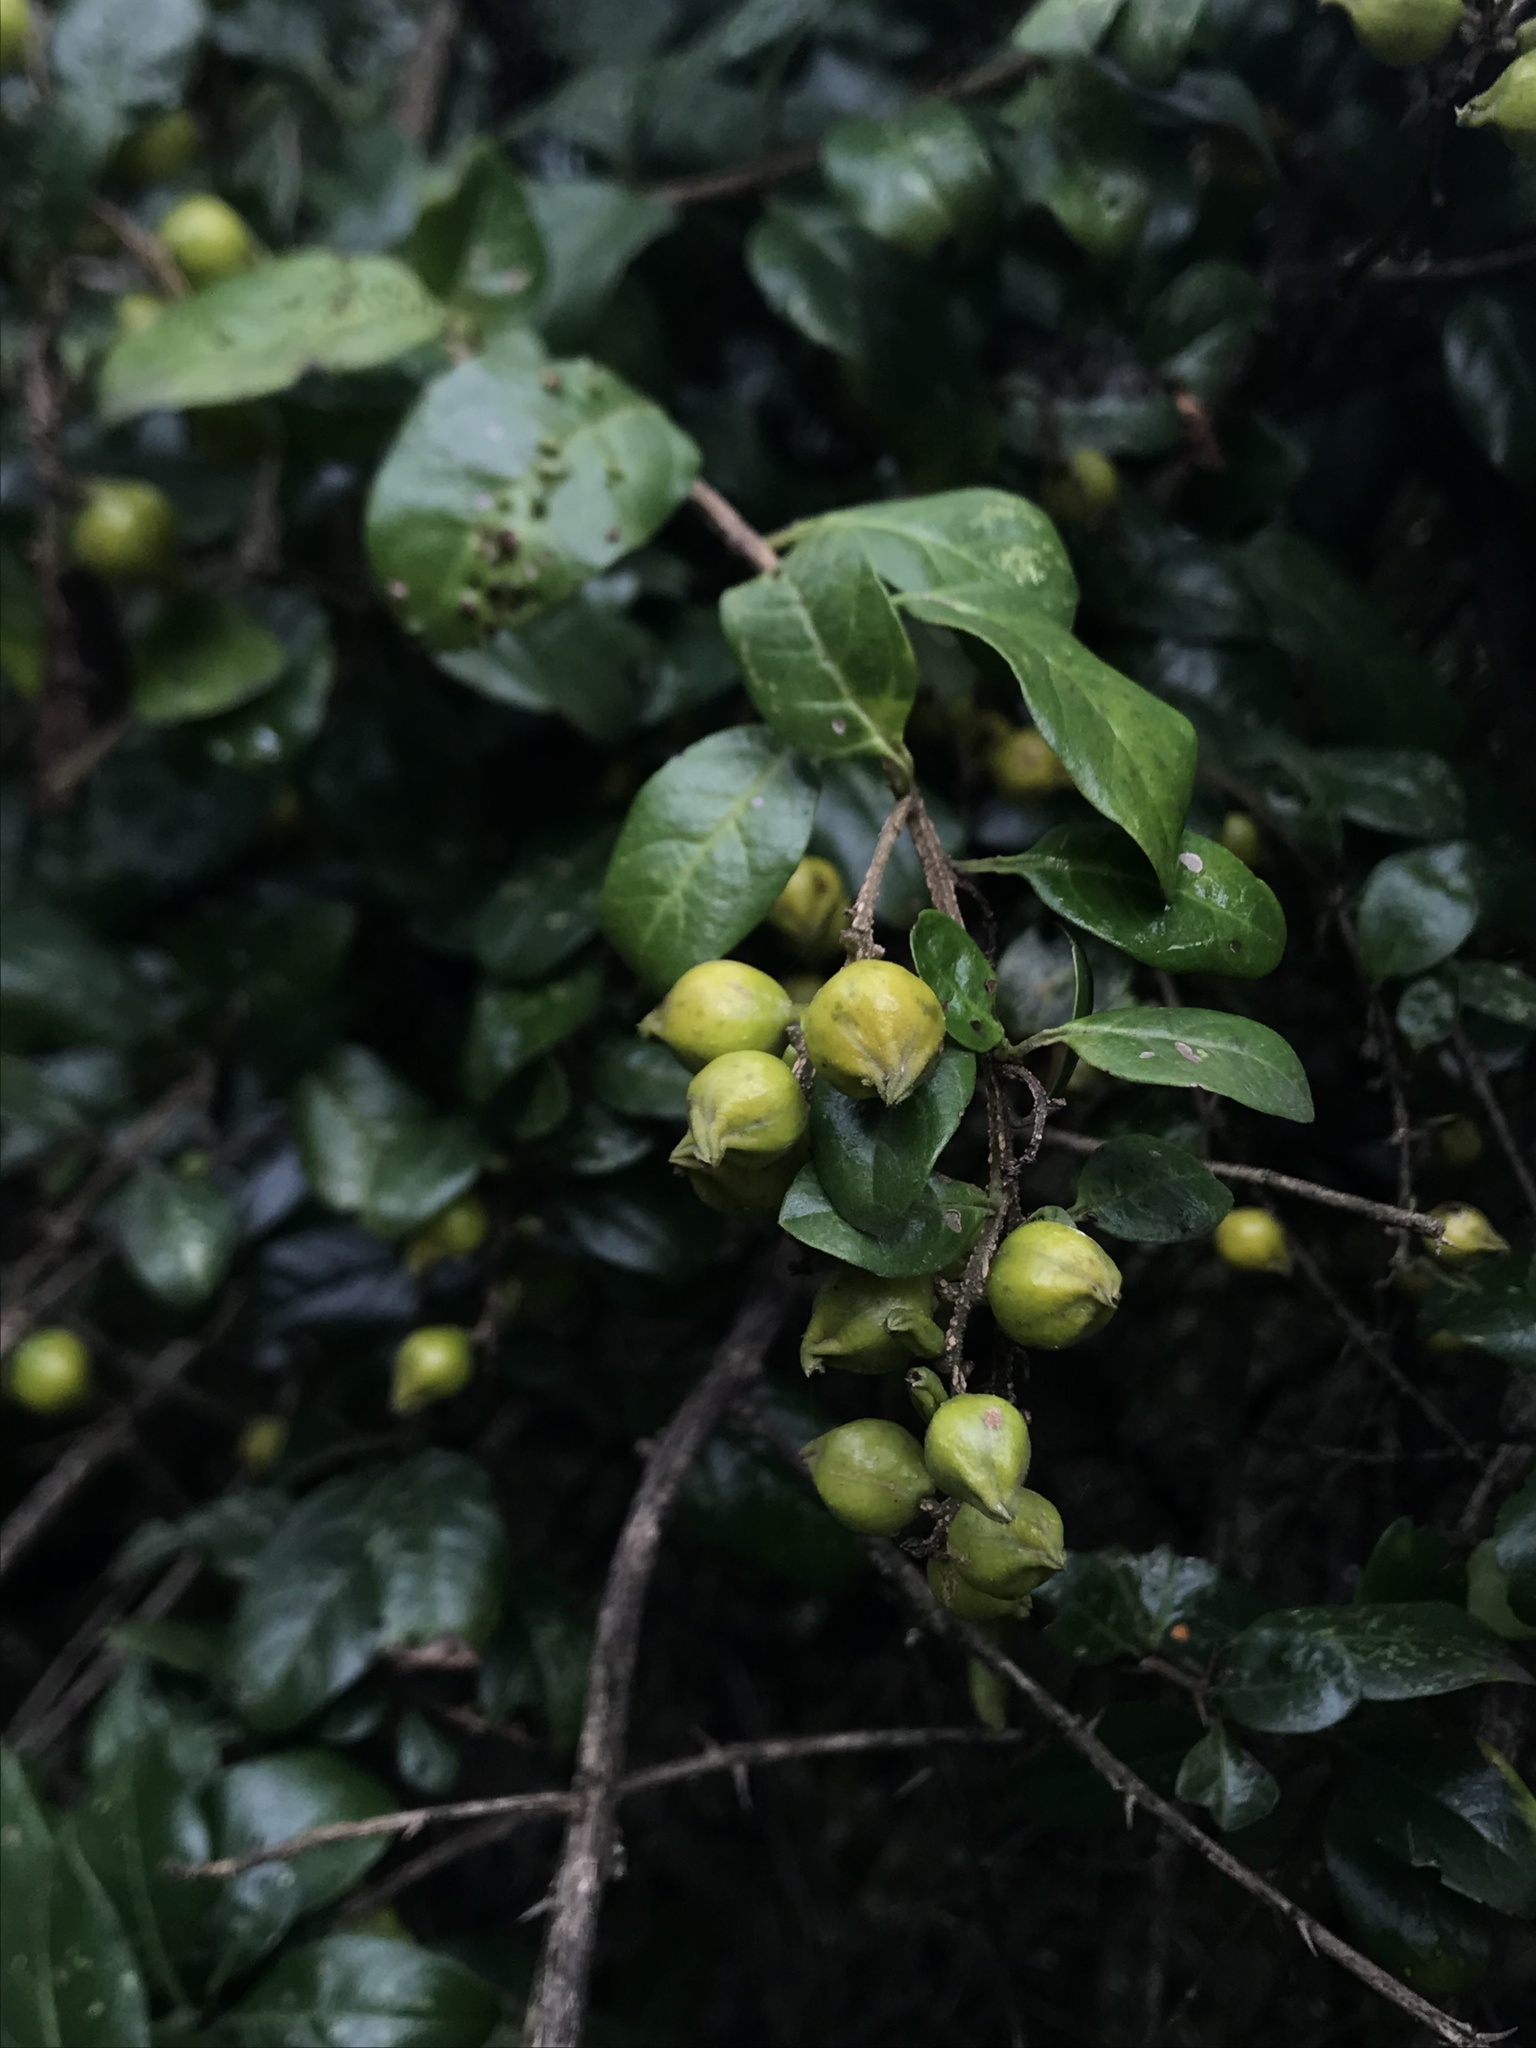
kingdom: Plantae
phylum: Tracheophyta
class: Magnoliopsida
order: Lamiales
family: Verbenaceae
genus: Duranta
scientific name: Duranta mutisii
